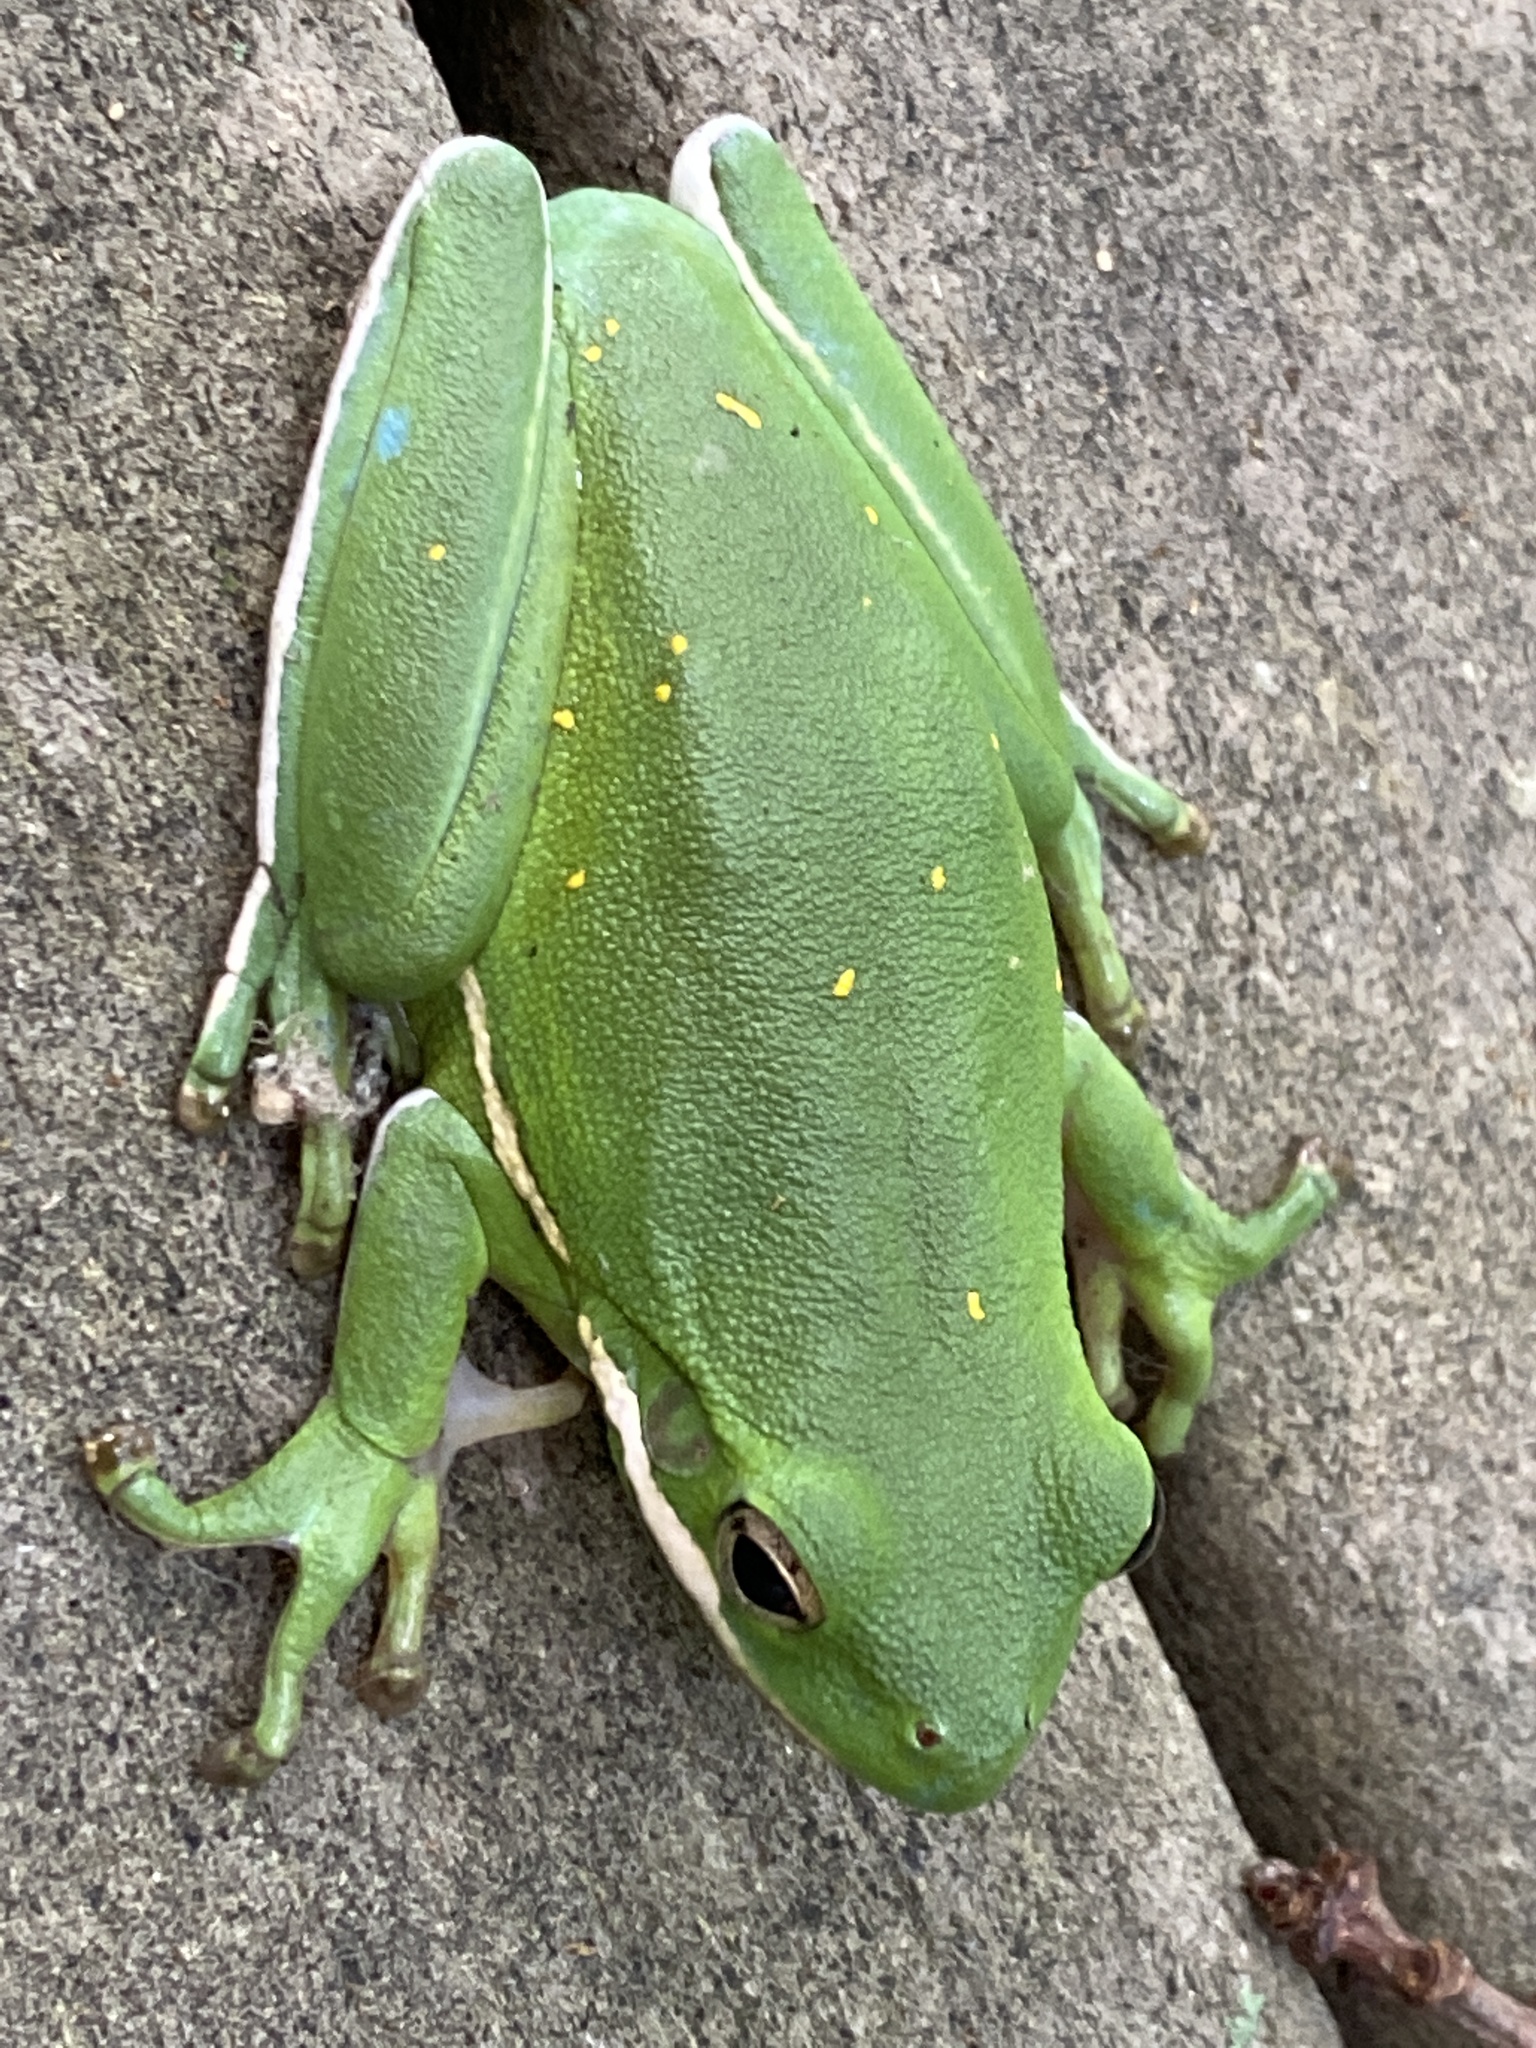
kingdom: Animalia
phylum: Chordata
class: Amphibia
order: Anura
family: Hylidae
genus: Dryophytes
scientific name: Dryophytes cinereus
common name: Green treefrog
